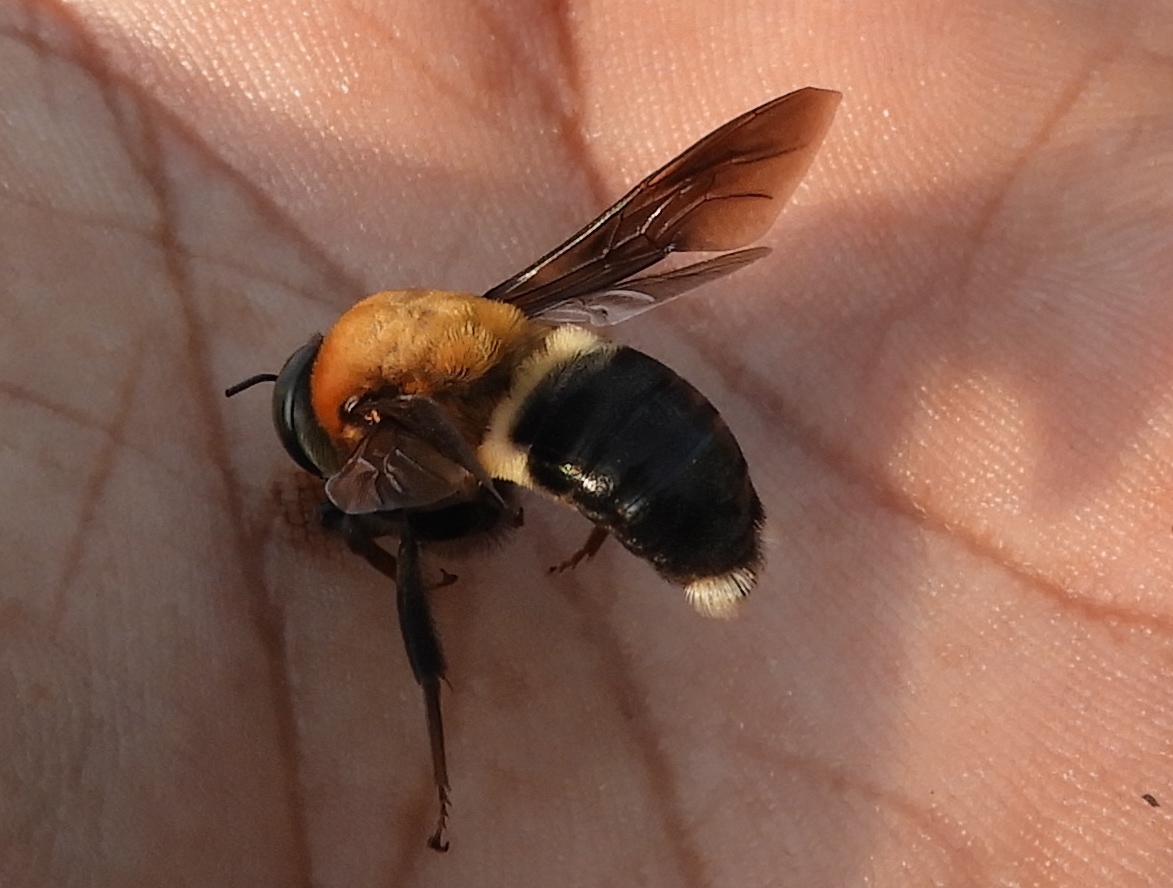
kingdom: Animalia
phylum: Arthropoda
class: Insecta
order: Hymenoptera
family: Andrenidae
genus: Mesoxaea
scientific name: Mesoxaea
